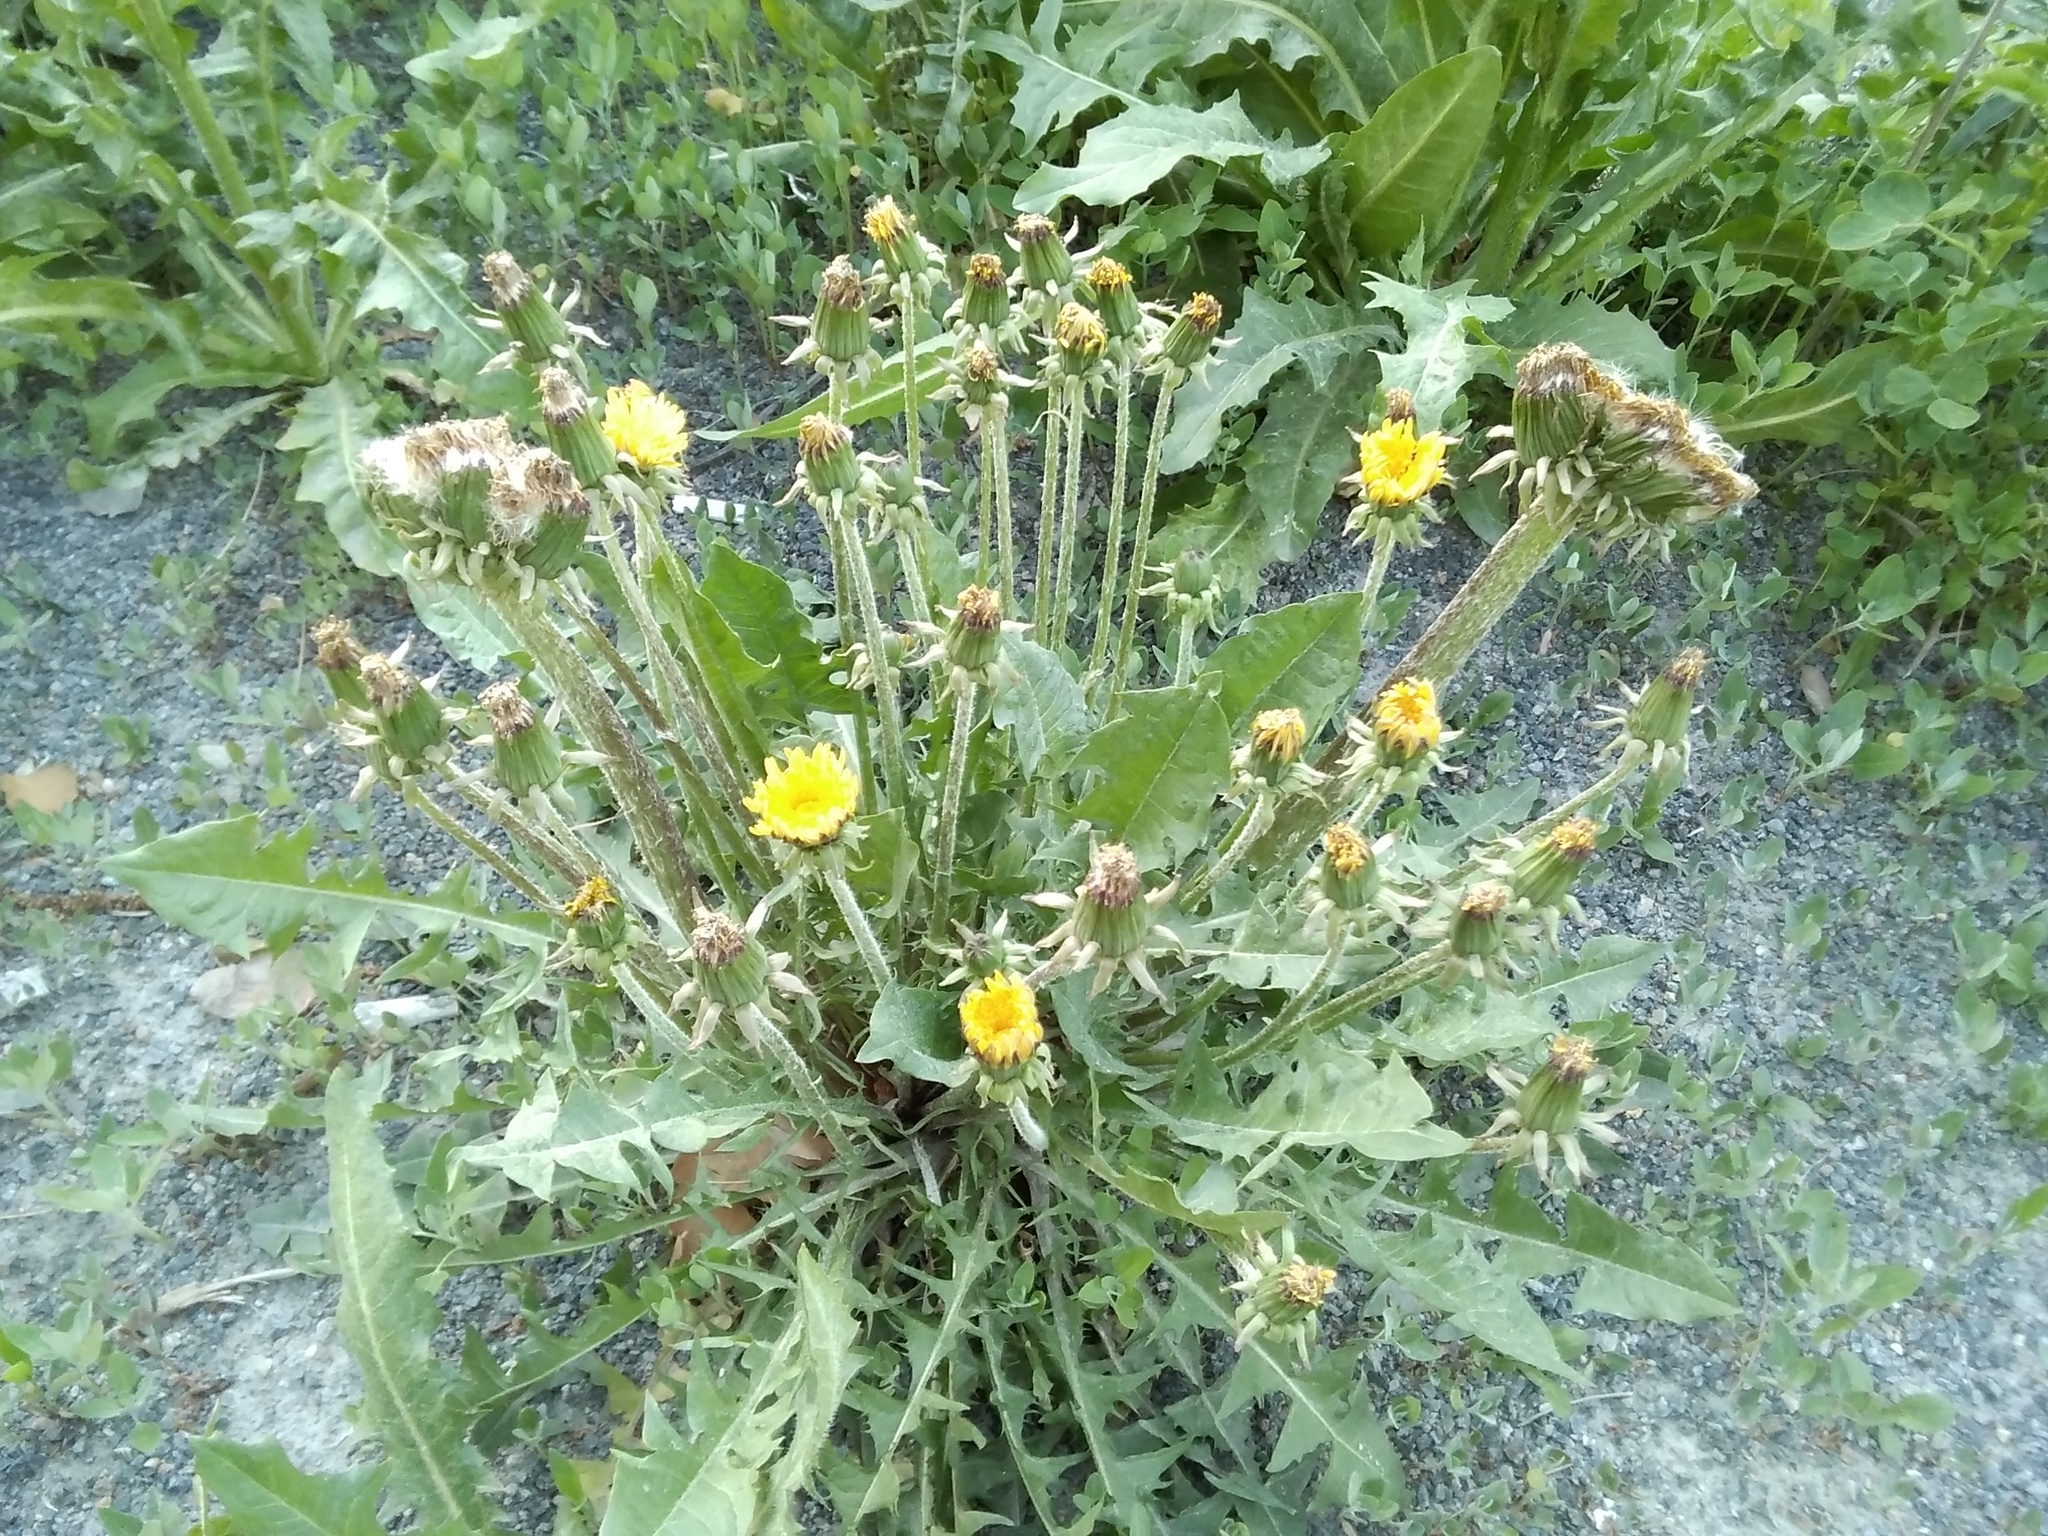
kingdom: Plantae
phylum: Tracheophyta
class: Magnoliopsida
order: Asterales
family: Asteraceae
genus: Taraxacum
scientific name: Taraxacum officinale
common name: Common dandelion
